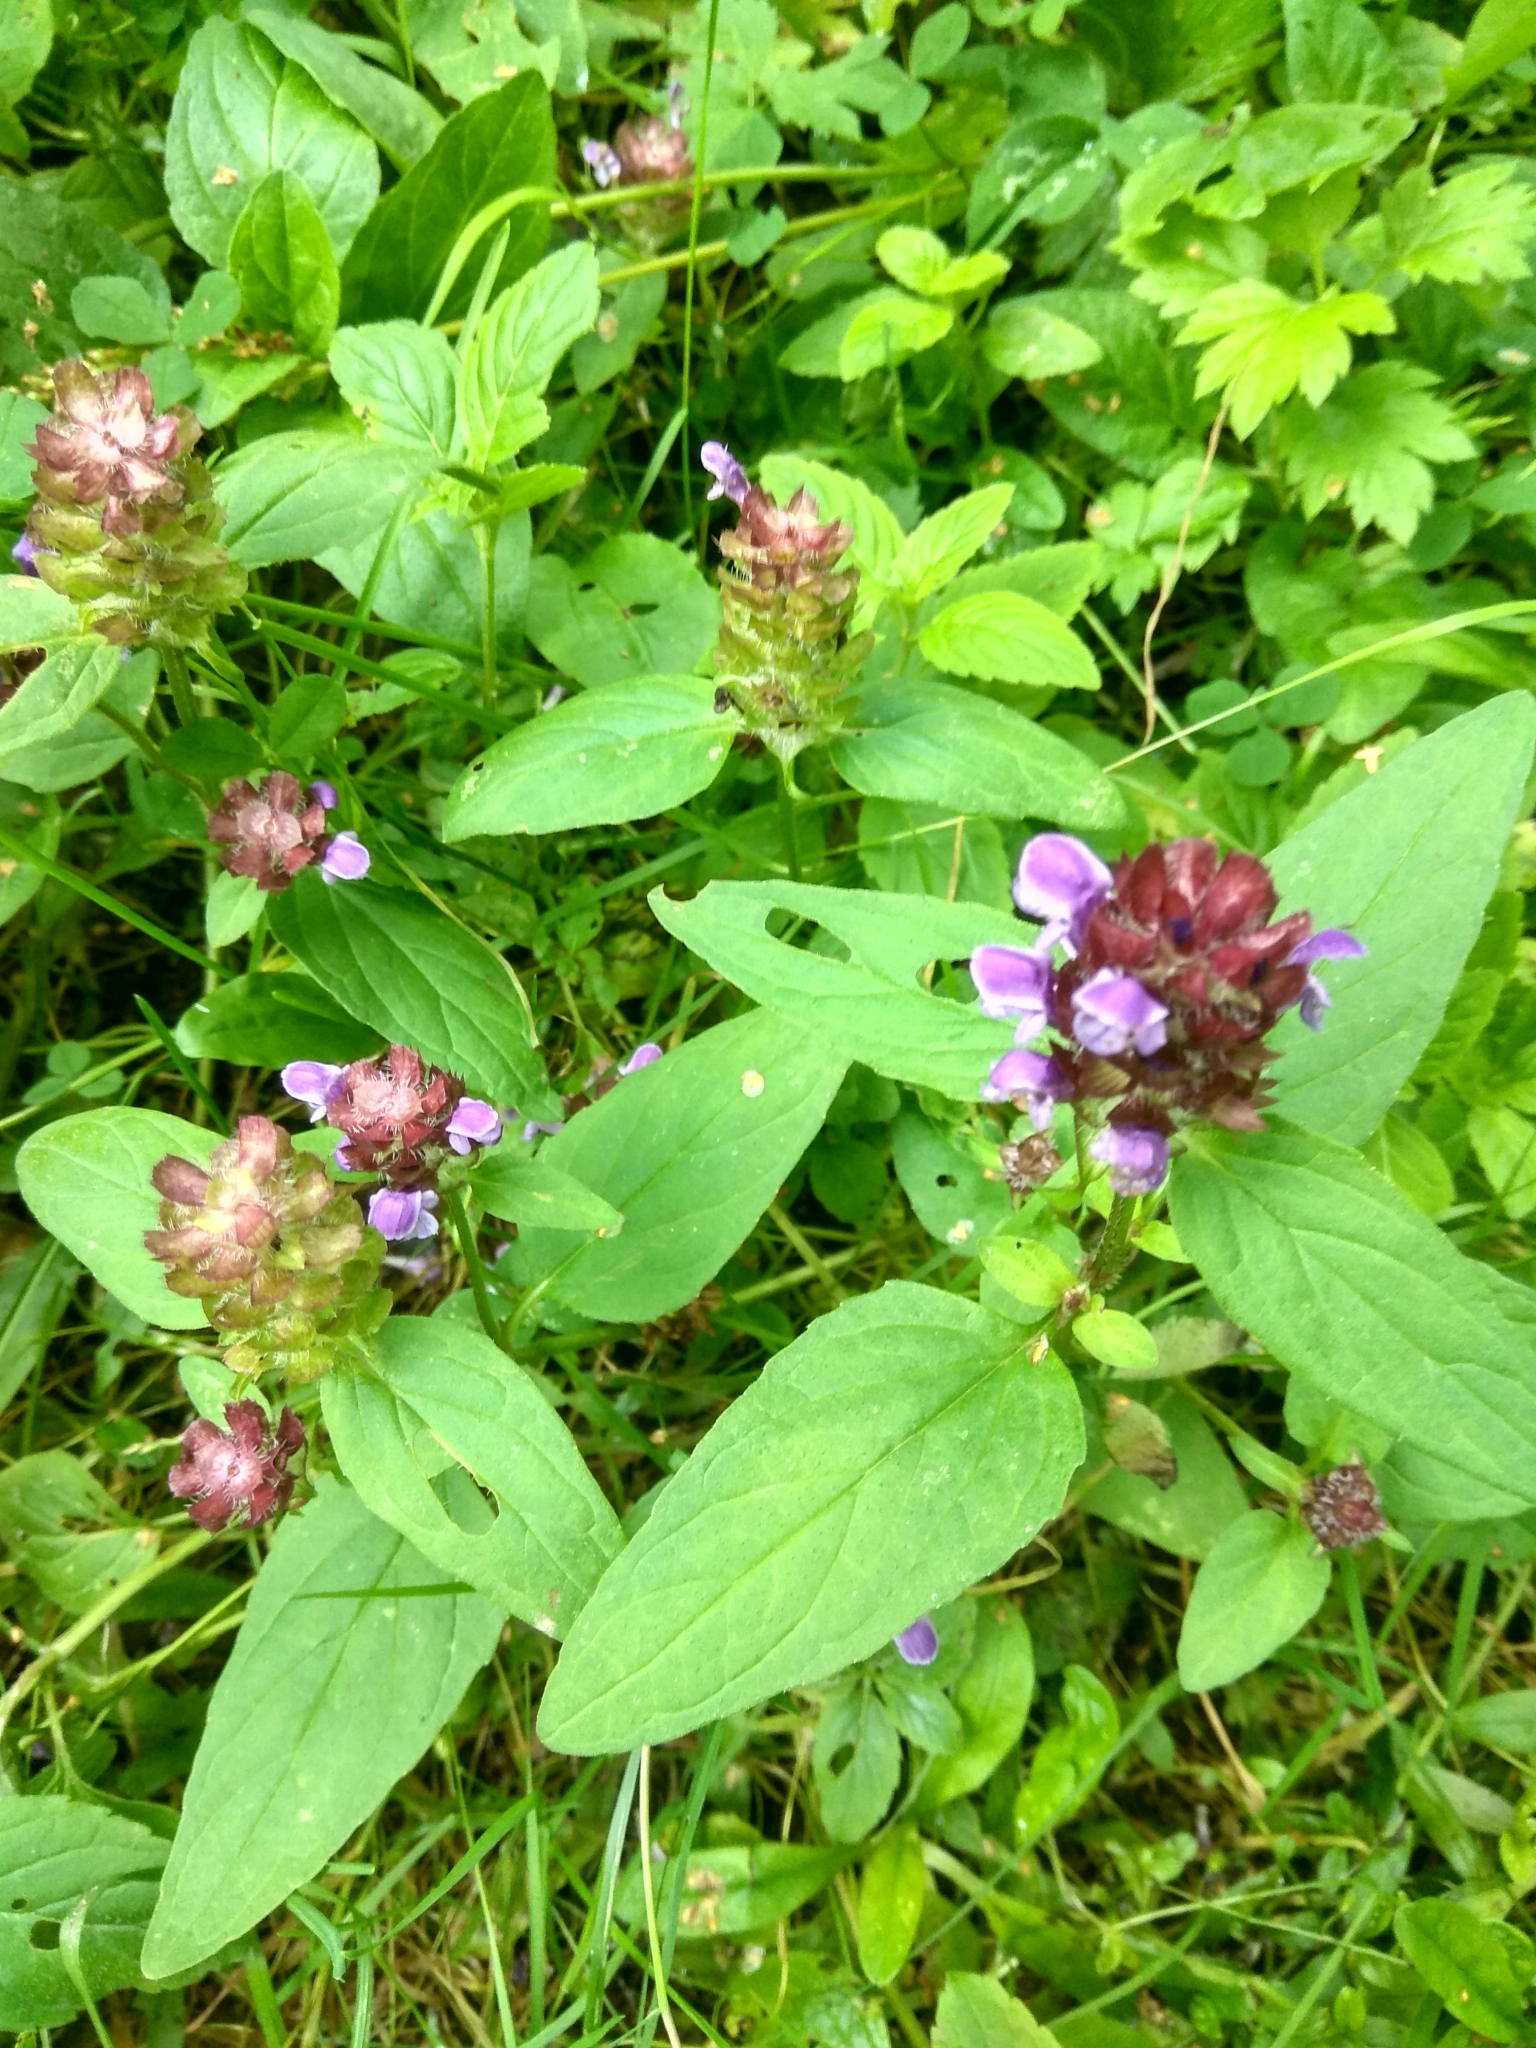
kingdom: Plantae
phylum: Tracheophyta
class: Magnoliopsida
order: Lamiales
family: Lamiaceae
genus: Prunella
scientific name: Prunella vulgaris
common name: Heal-all
